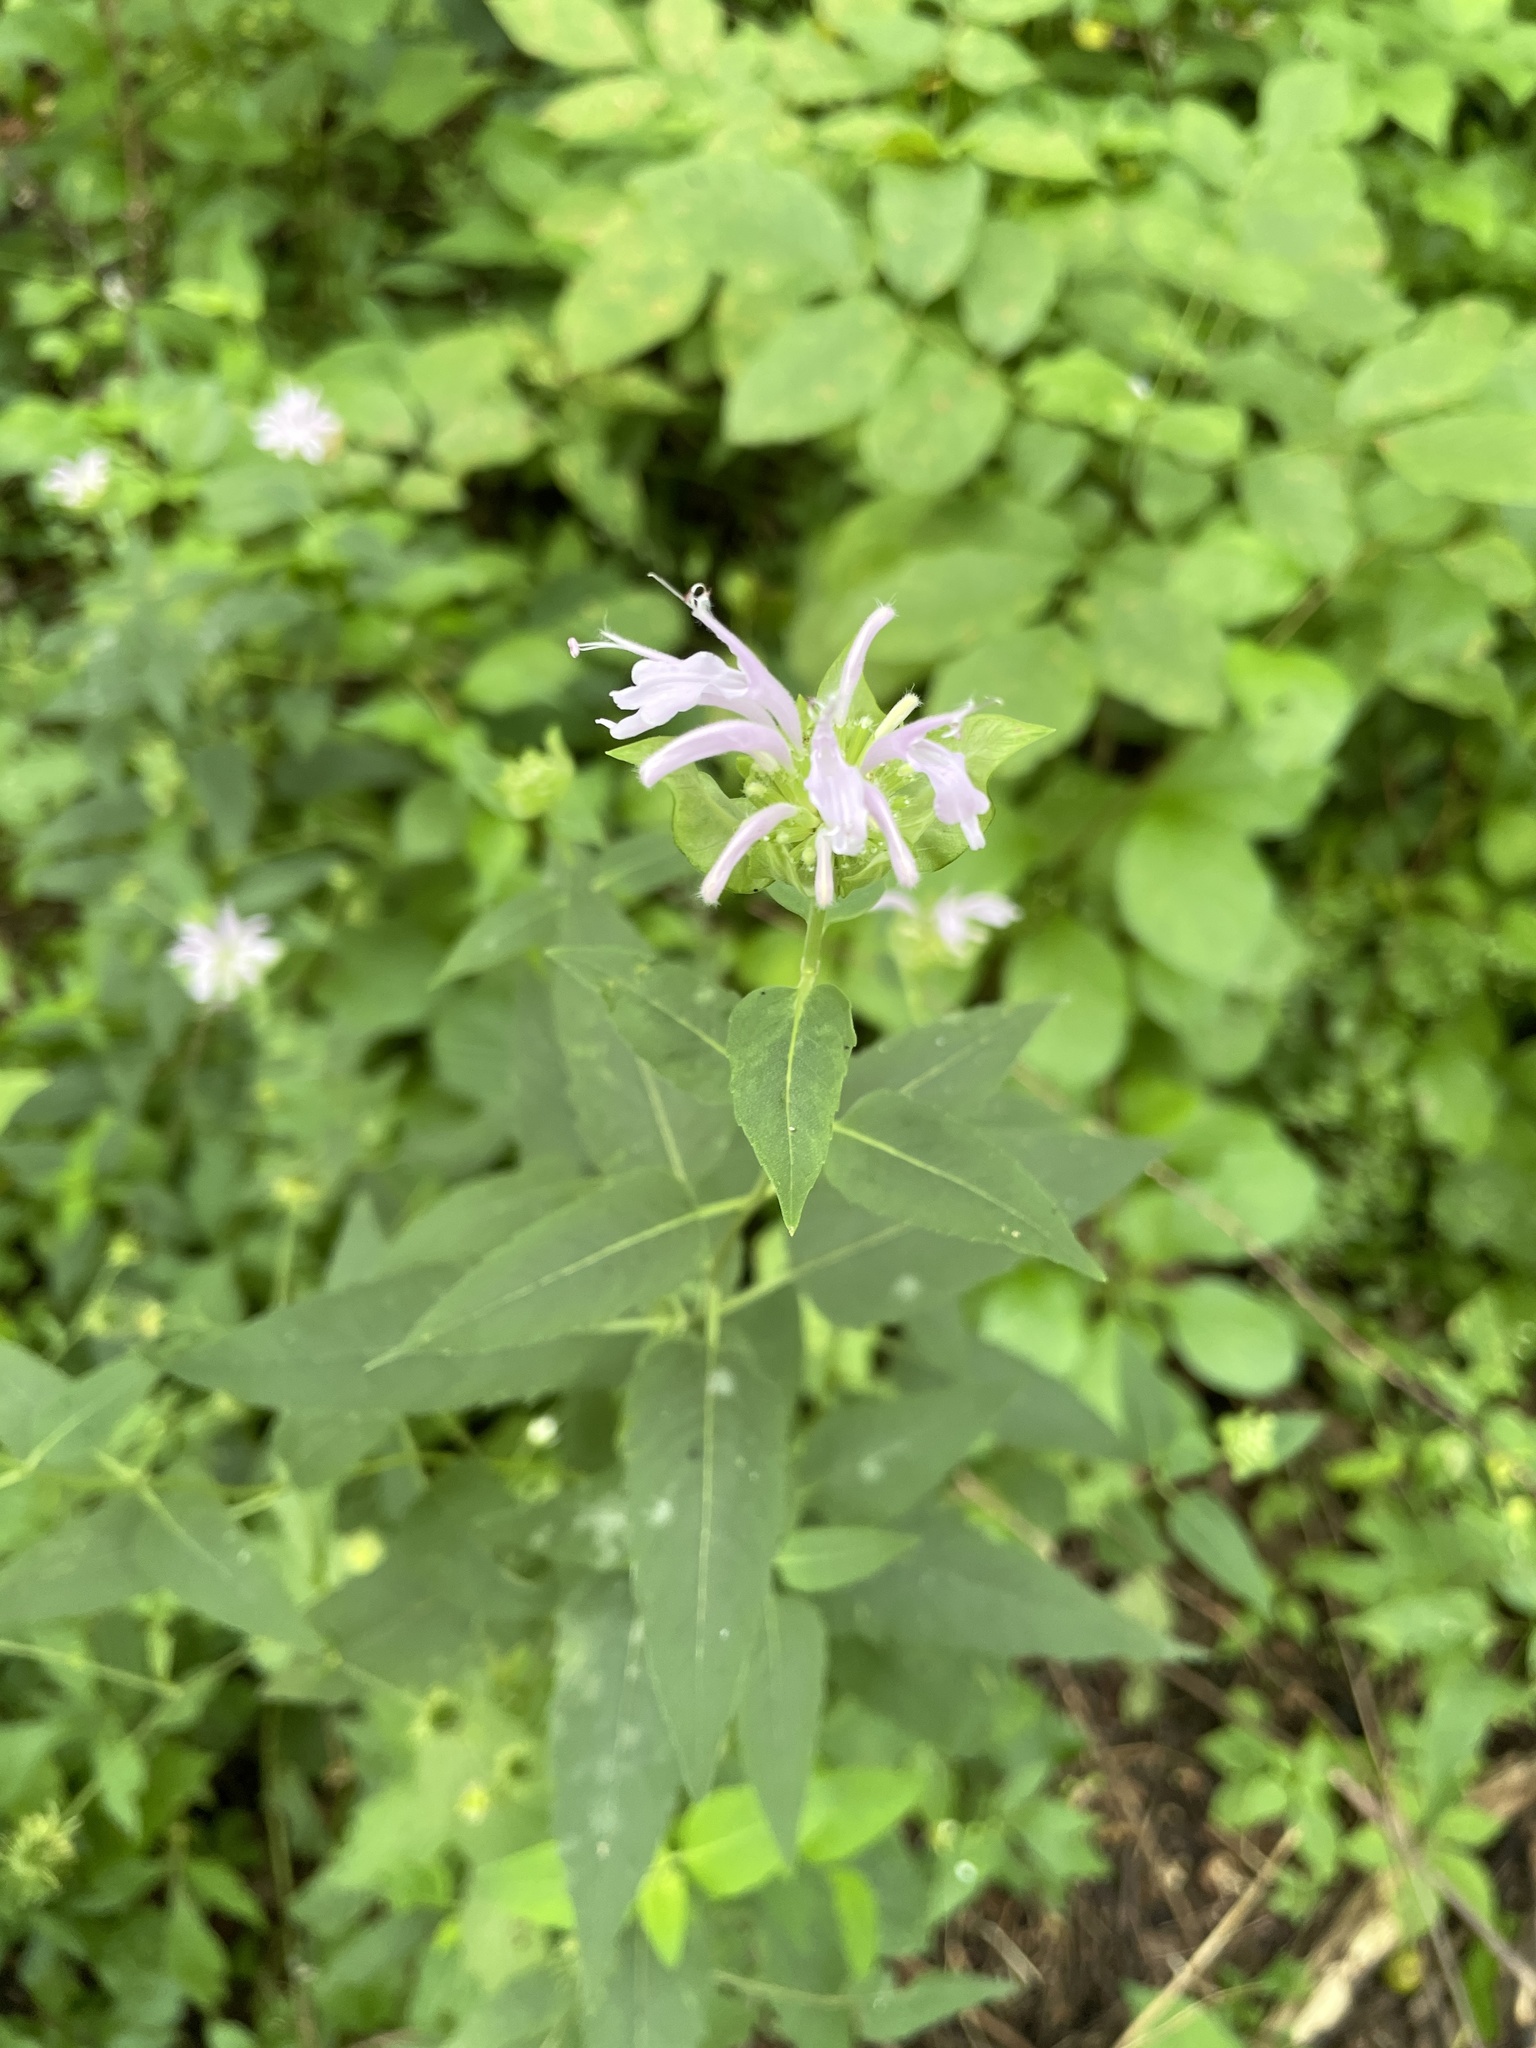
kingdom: Plantae
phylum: Tracheophyta
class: Magnoliopsida
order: Lamiales
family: Lamiaceae
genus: Monarda
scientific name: Monarda fistulosa
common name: Purple beebalm
